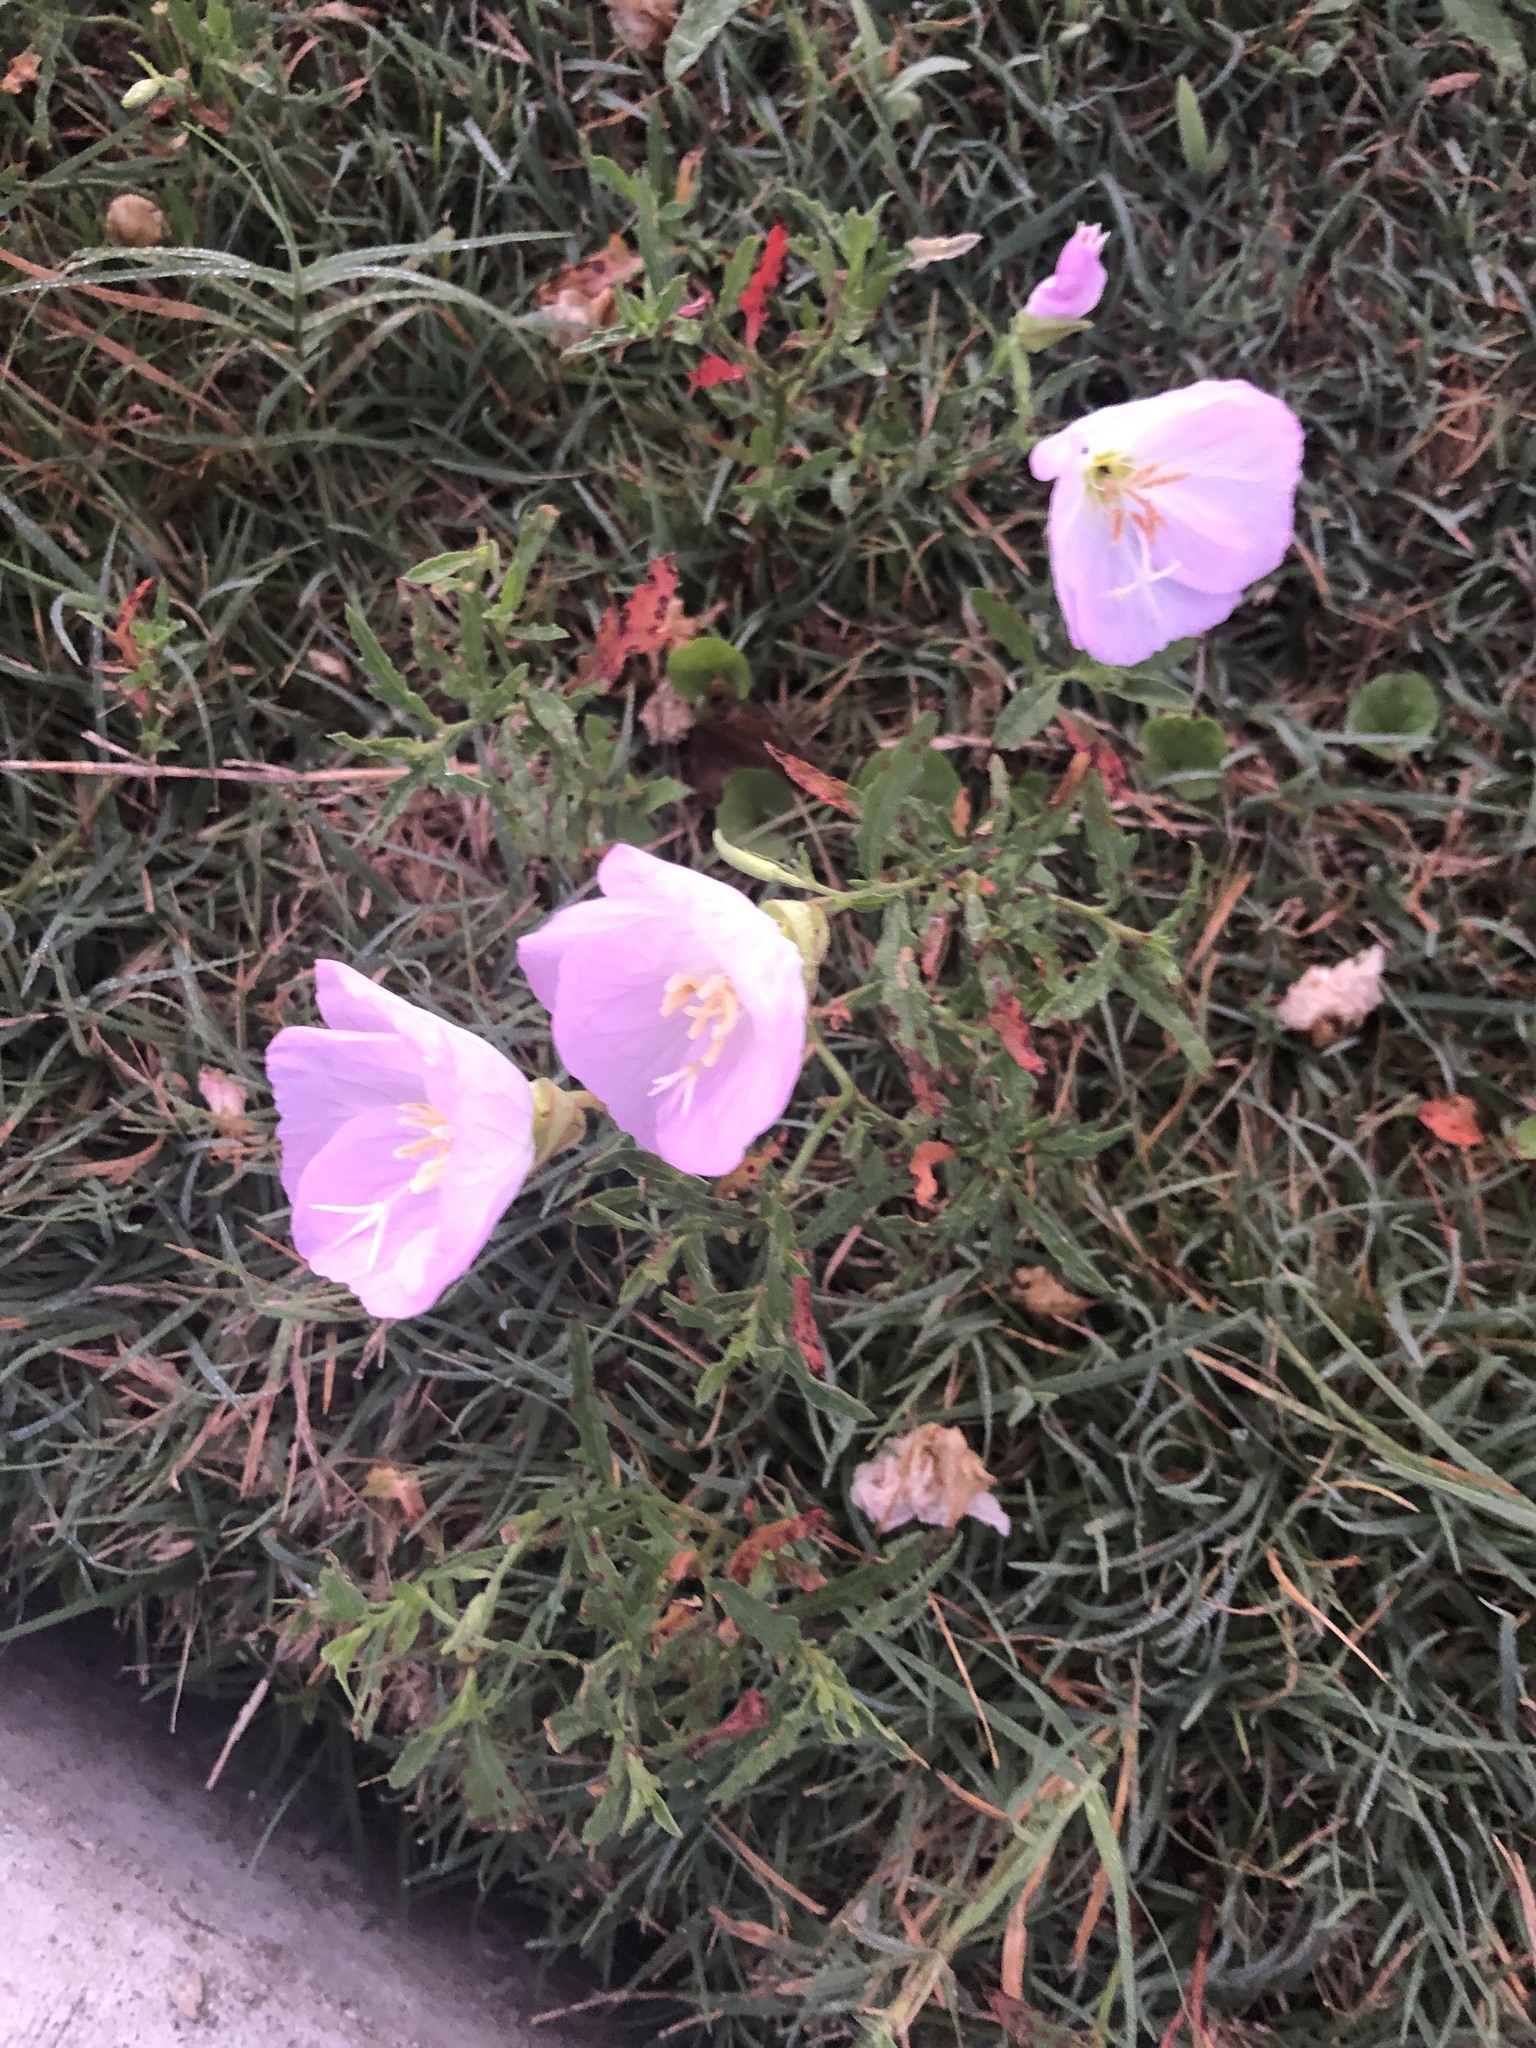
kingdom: Plantae
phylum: Tracheophyta
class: Magnoliopsida
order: Myrtales
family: Onagraceae
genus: Oenothera
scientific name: Oenothera speciosa
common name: White evening-primrose
